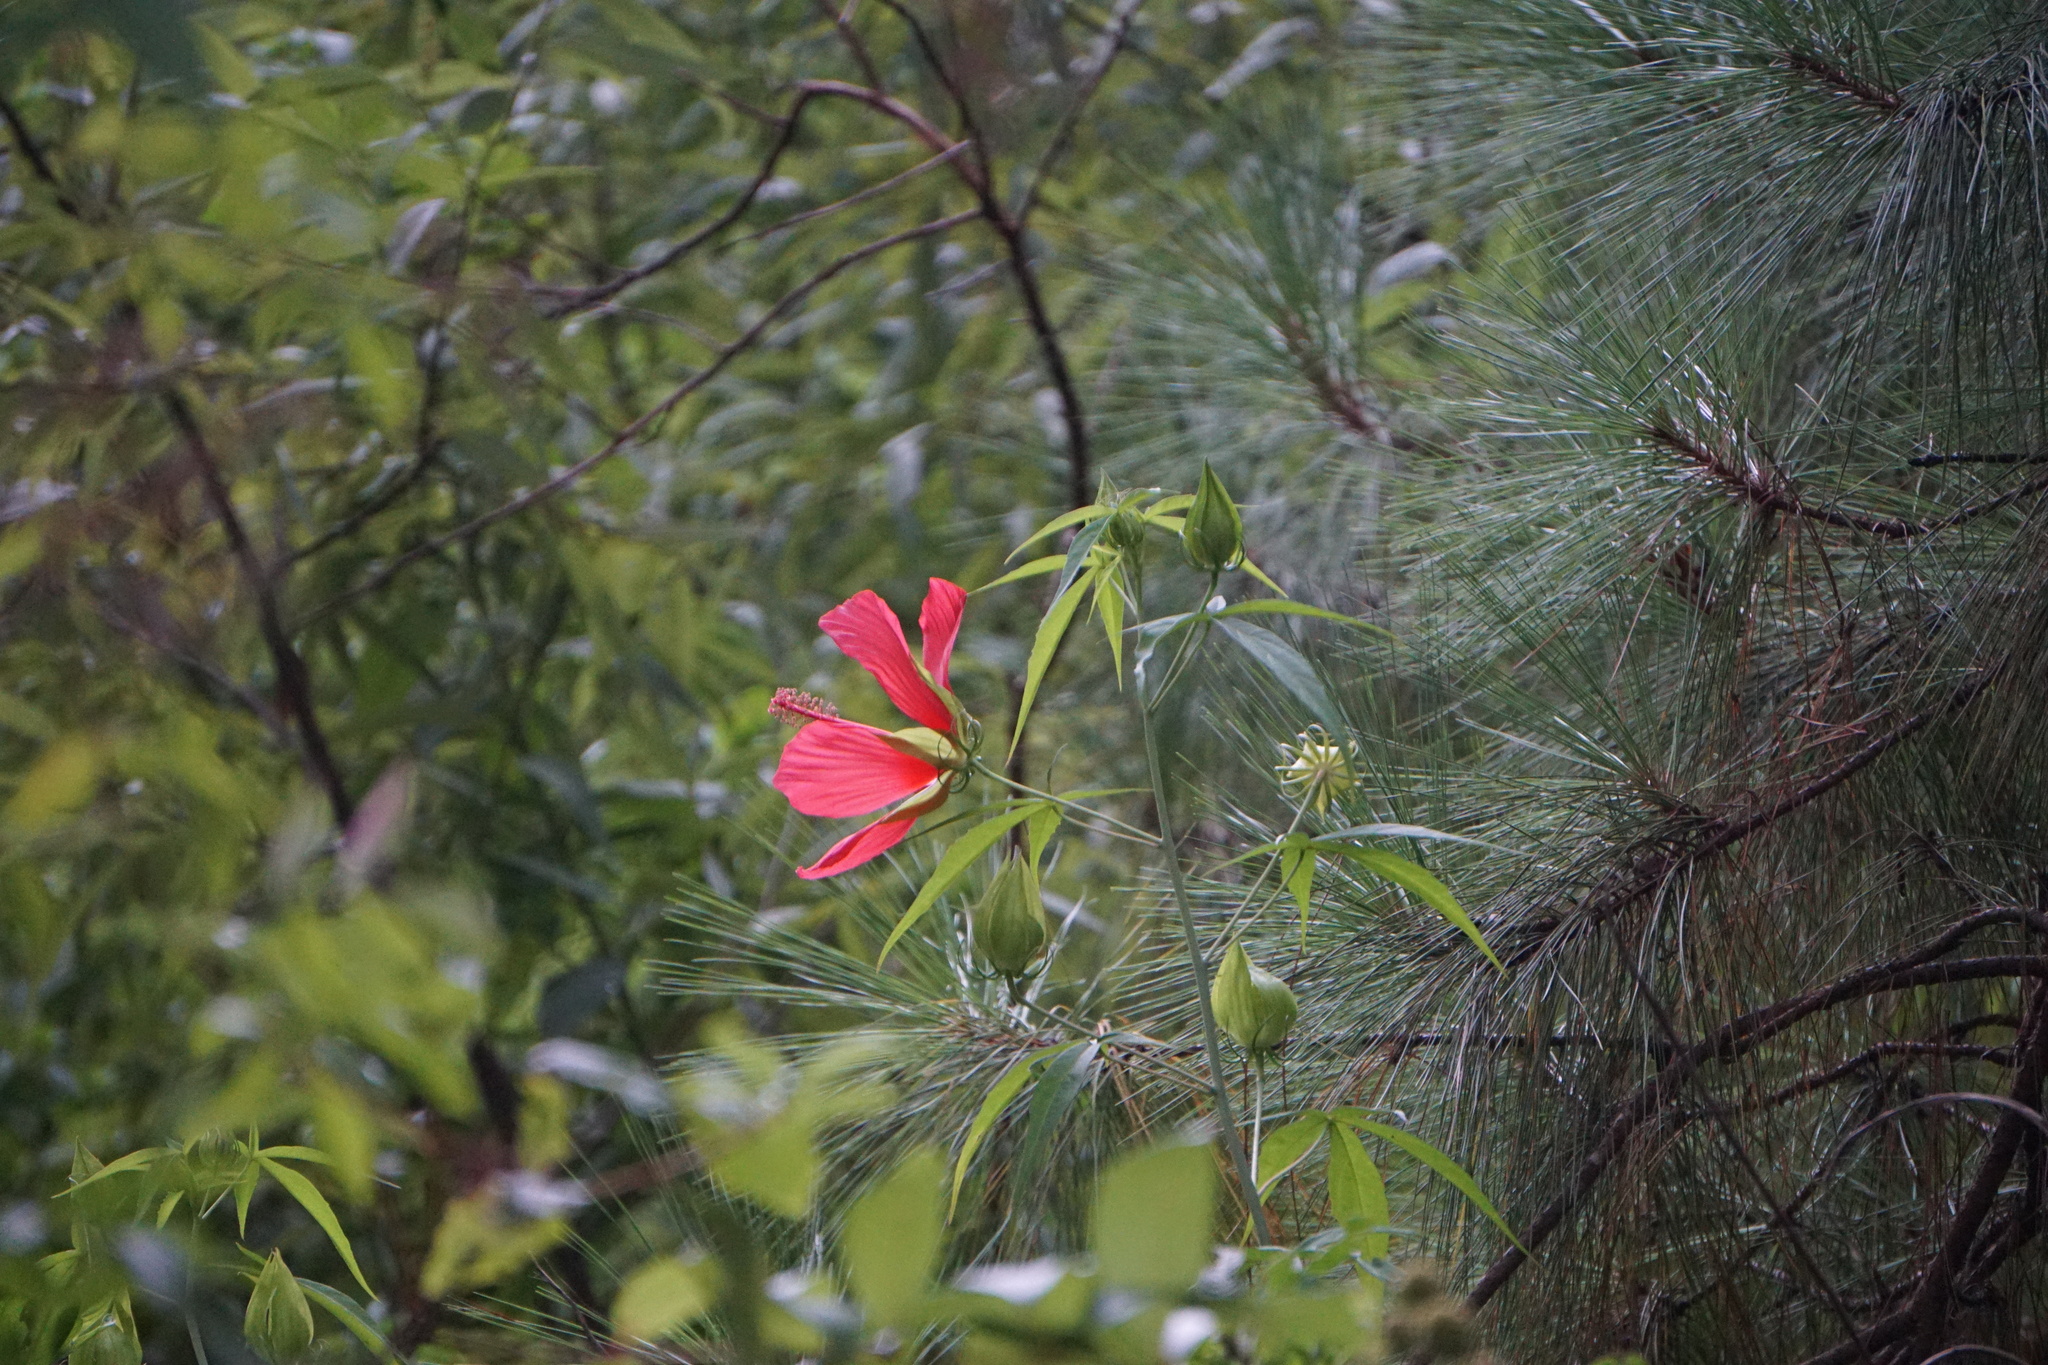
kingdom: Plantae
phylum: Tracheophyta
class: Magnoliopsida
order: Malvales
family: Malvaceae
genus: Hibiscus
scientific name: Hibiscus coccineus
